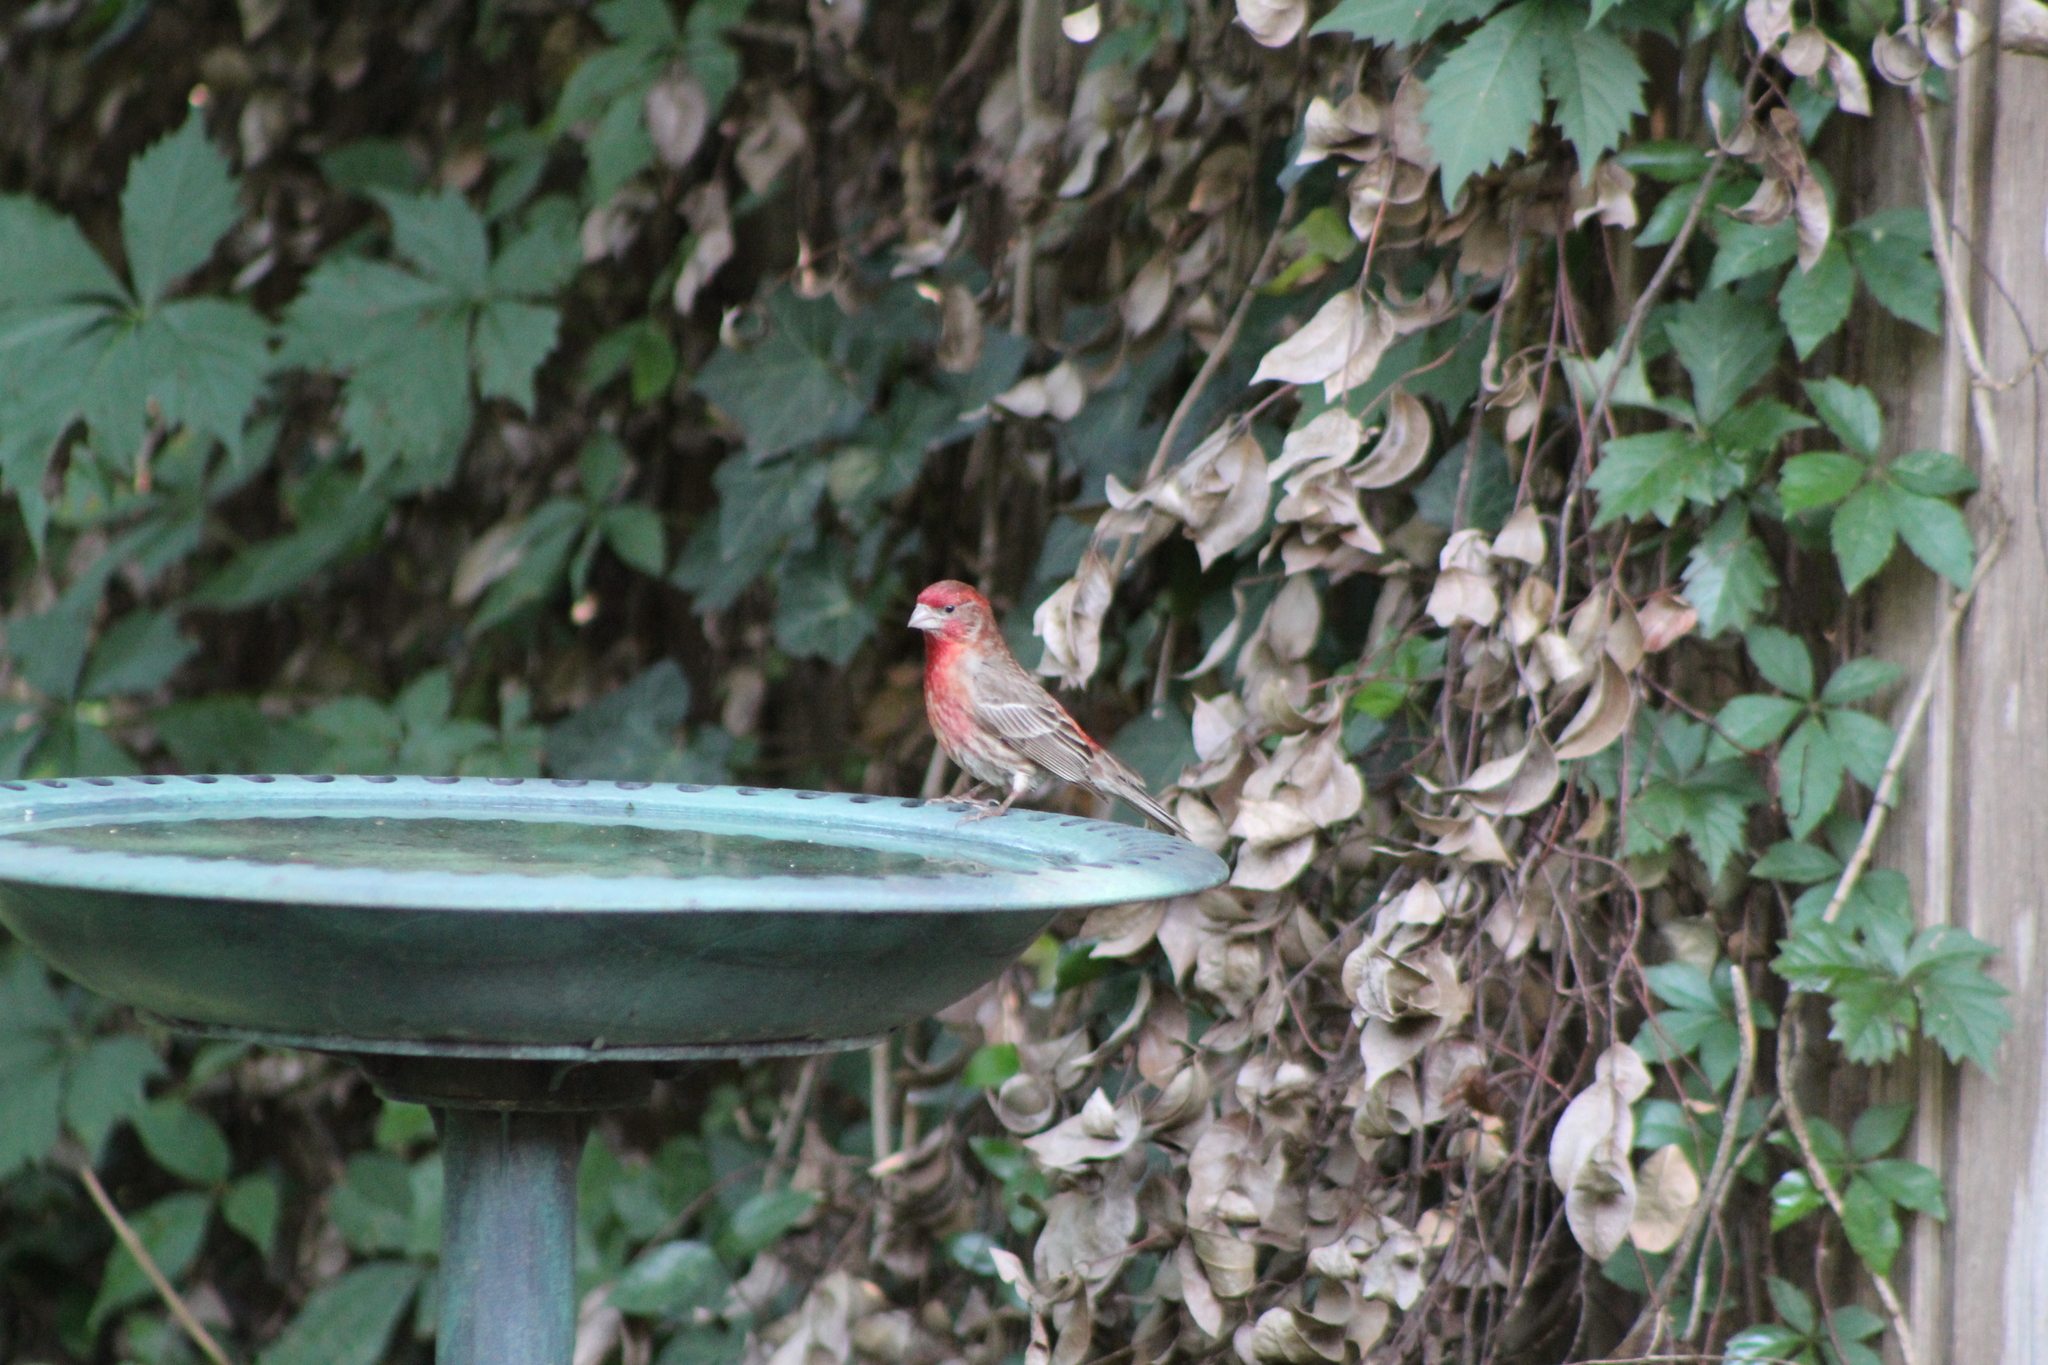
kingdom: Animalia
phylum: Chordata
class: Aves
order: Passeriformes
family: Fringillidae
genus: Haemorhous
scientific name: Haemorhous mexicanus
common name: House finch
